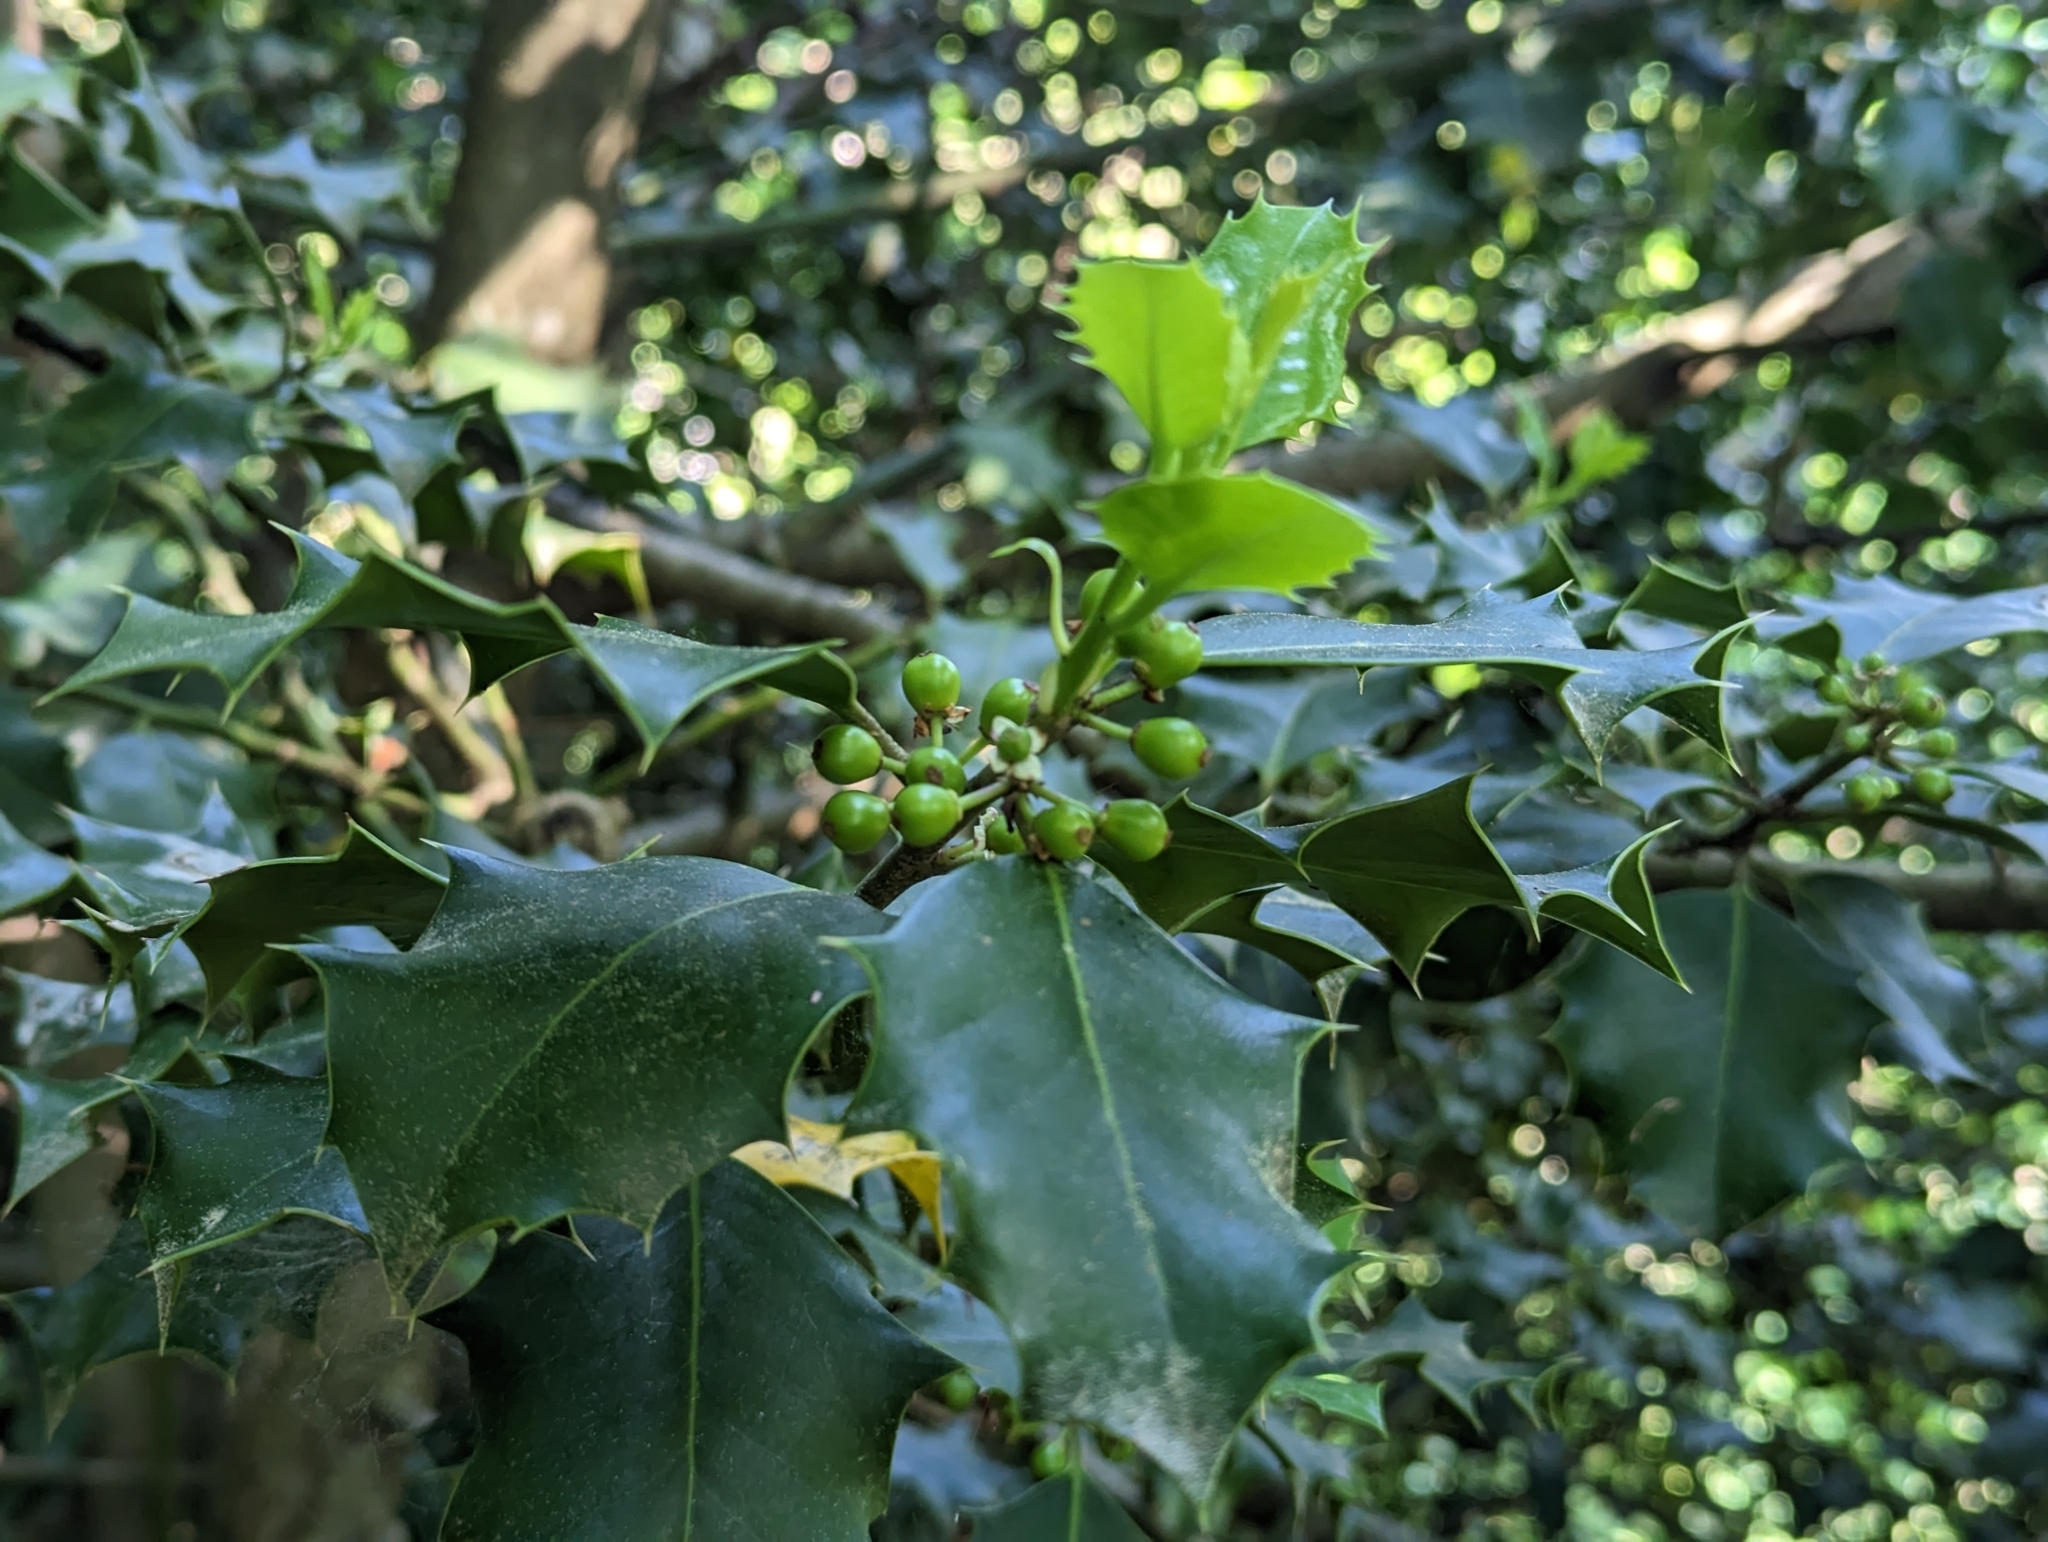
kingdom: Plantae
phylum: Tracheophyta
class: Magnoliopsida
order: Aquifoliales
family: Aquifoliaceae
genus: Ilex
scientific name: Ilex aquifolium
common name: English holly
